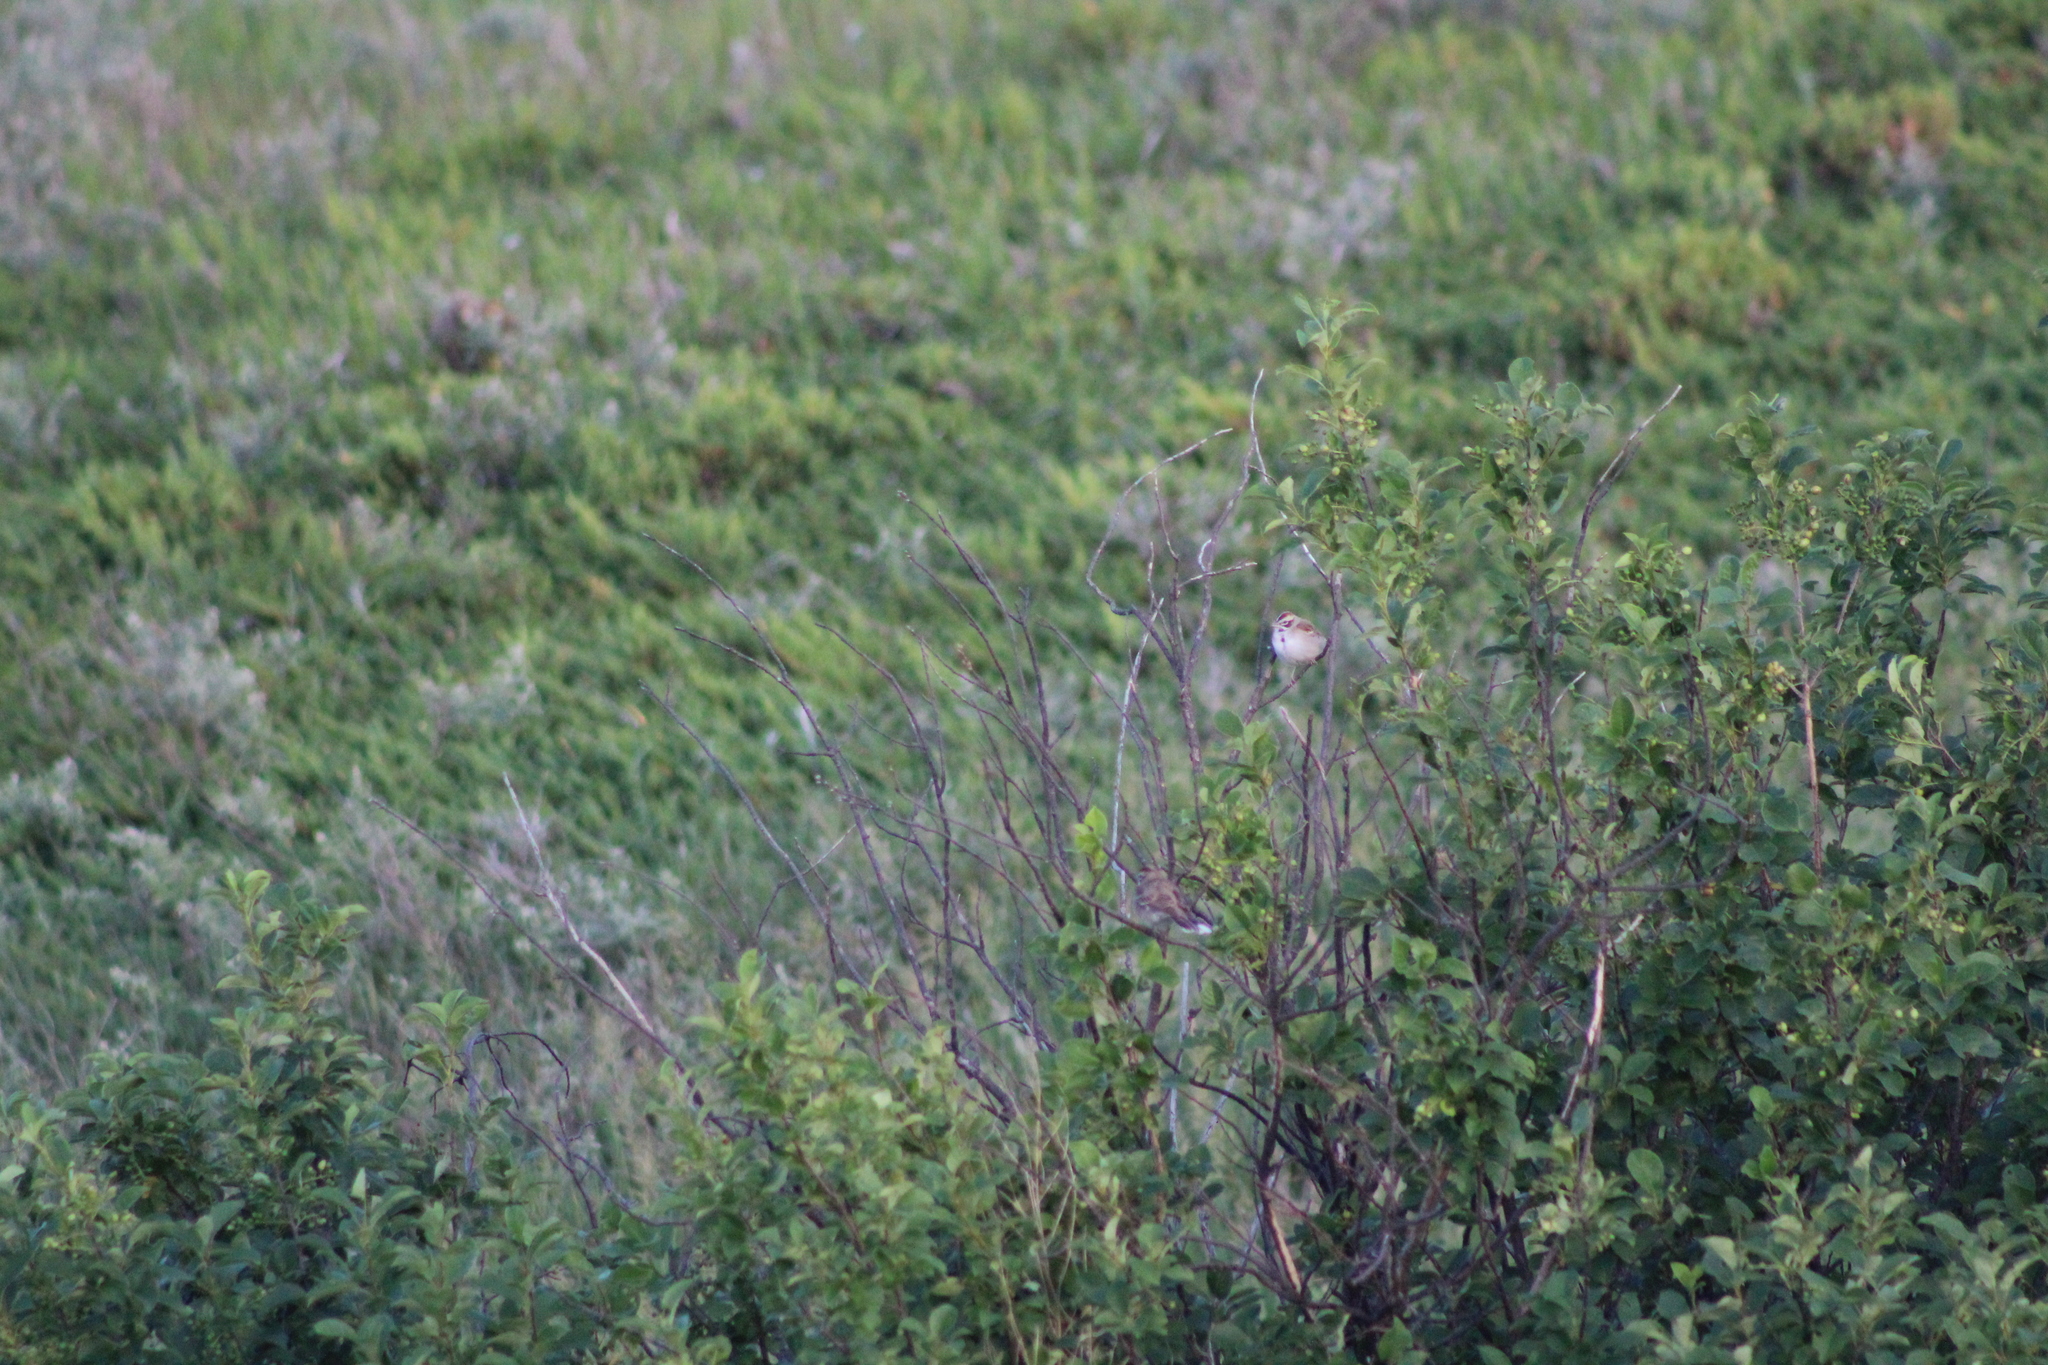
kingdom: Animalia
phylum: Chordata
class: Aves
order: Passeriformes
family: Passerellidae
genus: Chondestes
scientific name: Chondestes grammacus
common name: Lark sparrow
